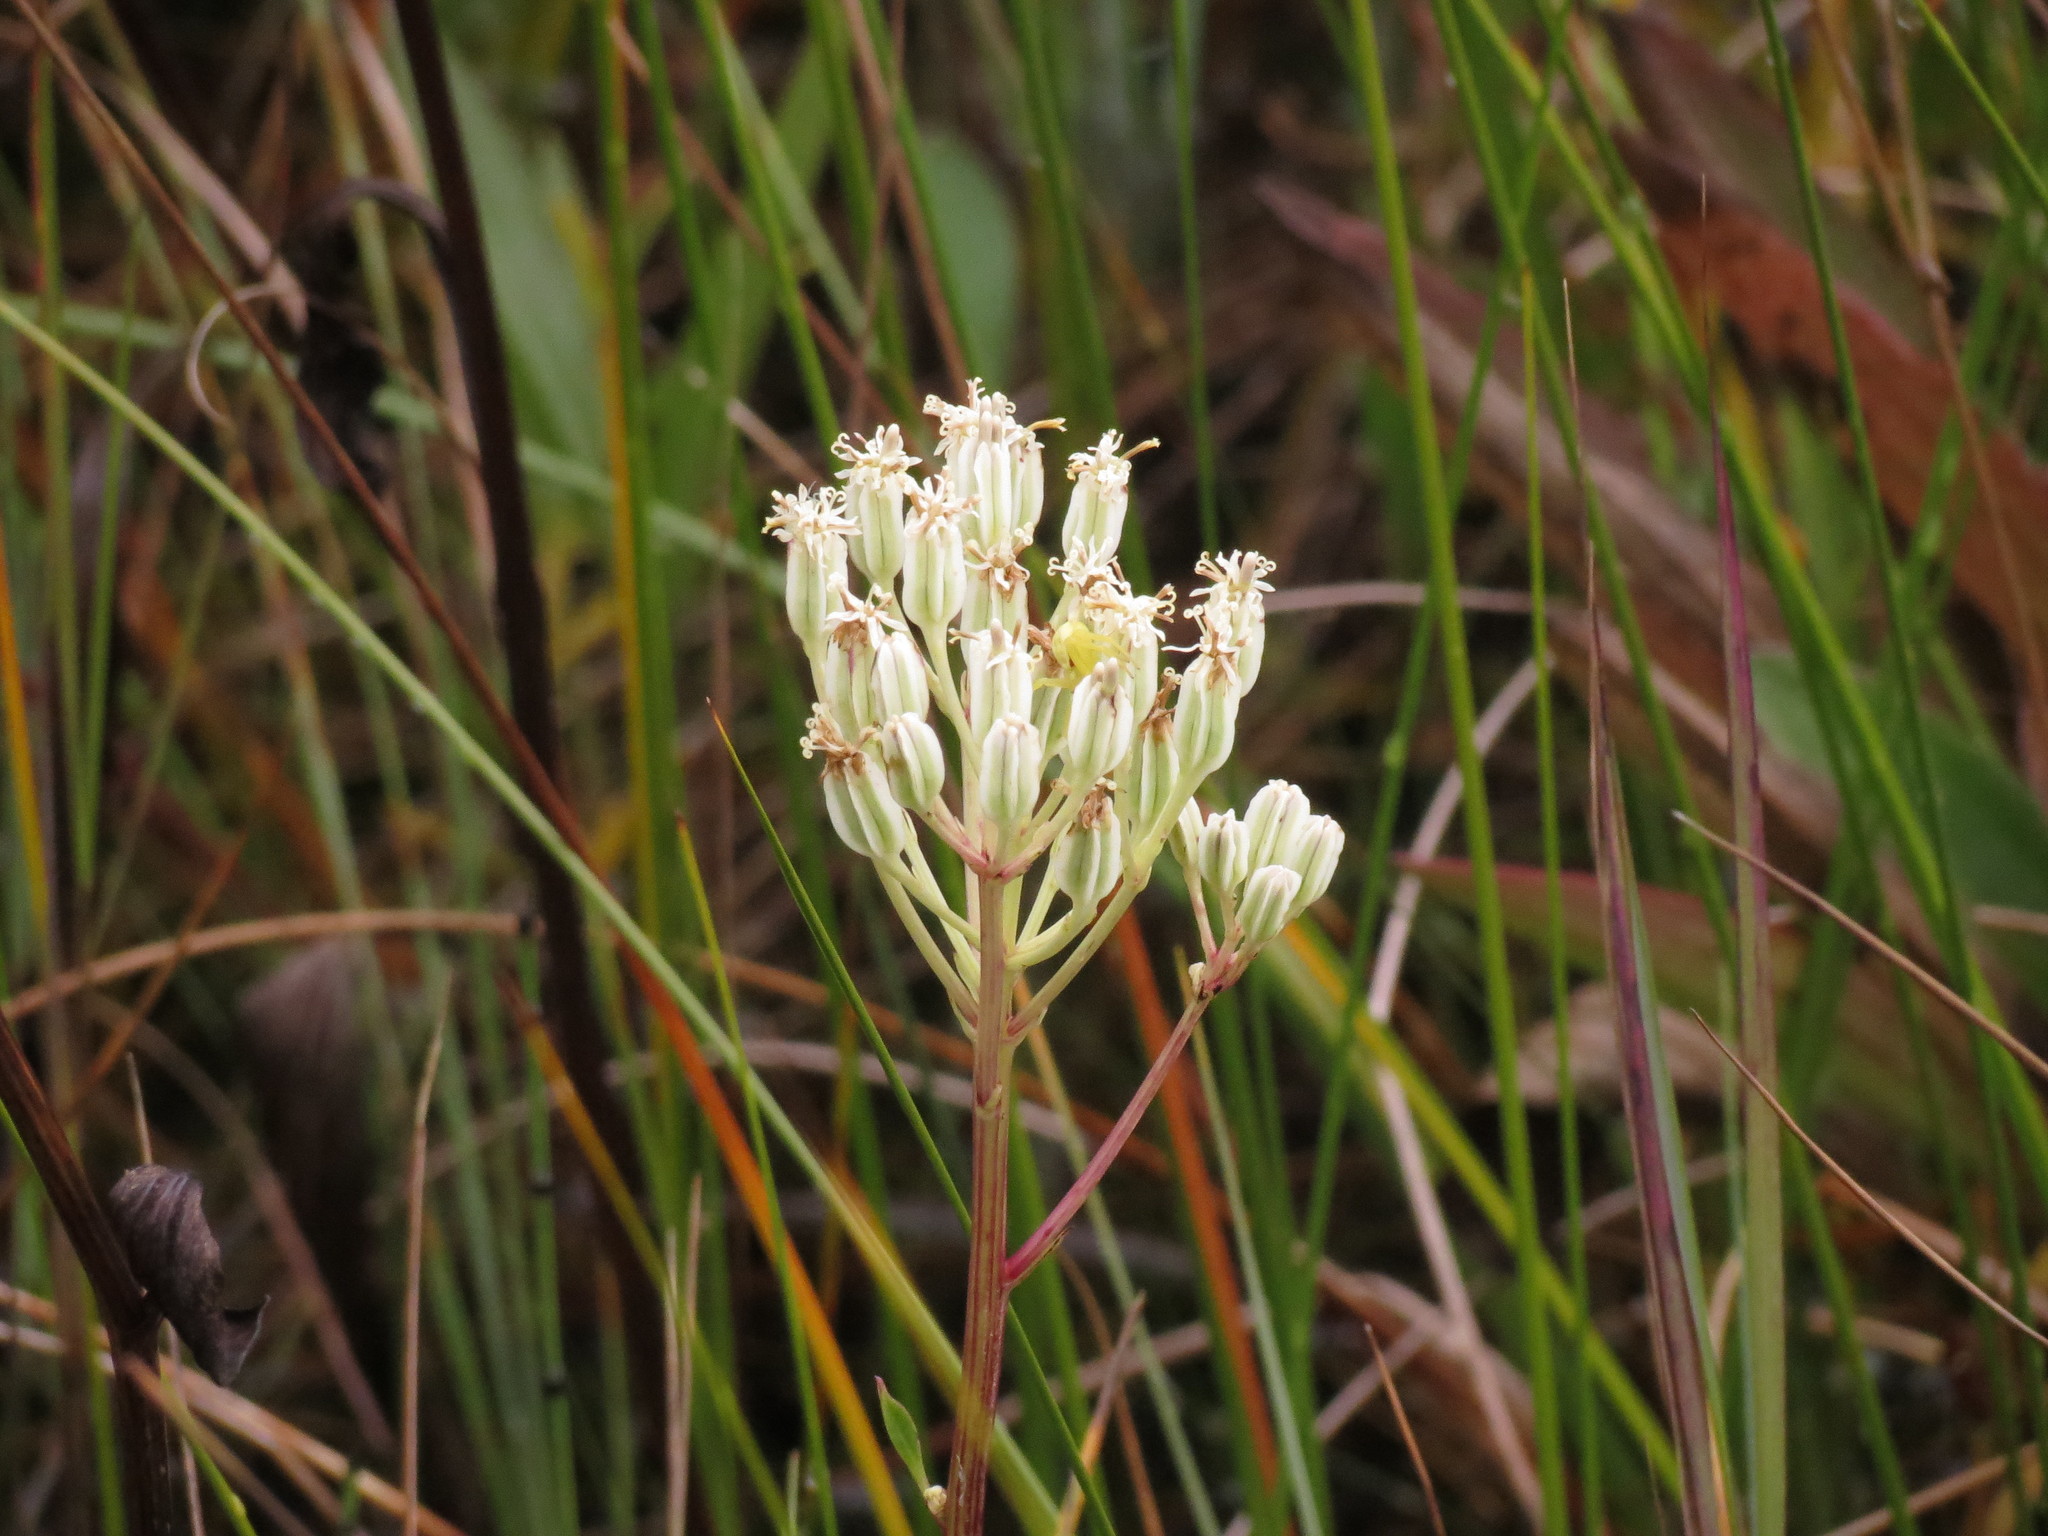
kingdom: Plantae
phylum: Tracheophyta
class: Magnoliopsida
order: Asterales
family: Asteraceae
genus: Arnoglossum
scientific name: Arnoglossum plantagineum
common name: Groove-stemmed indian-plantain
